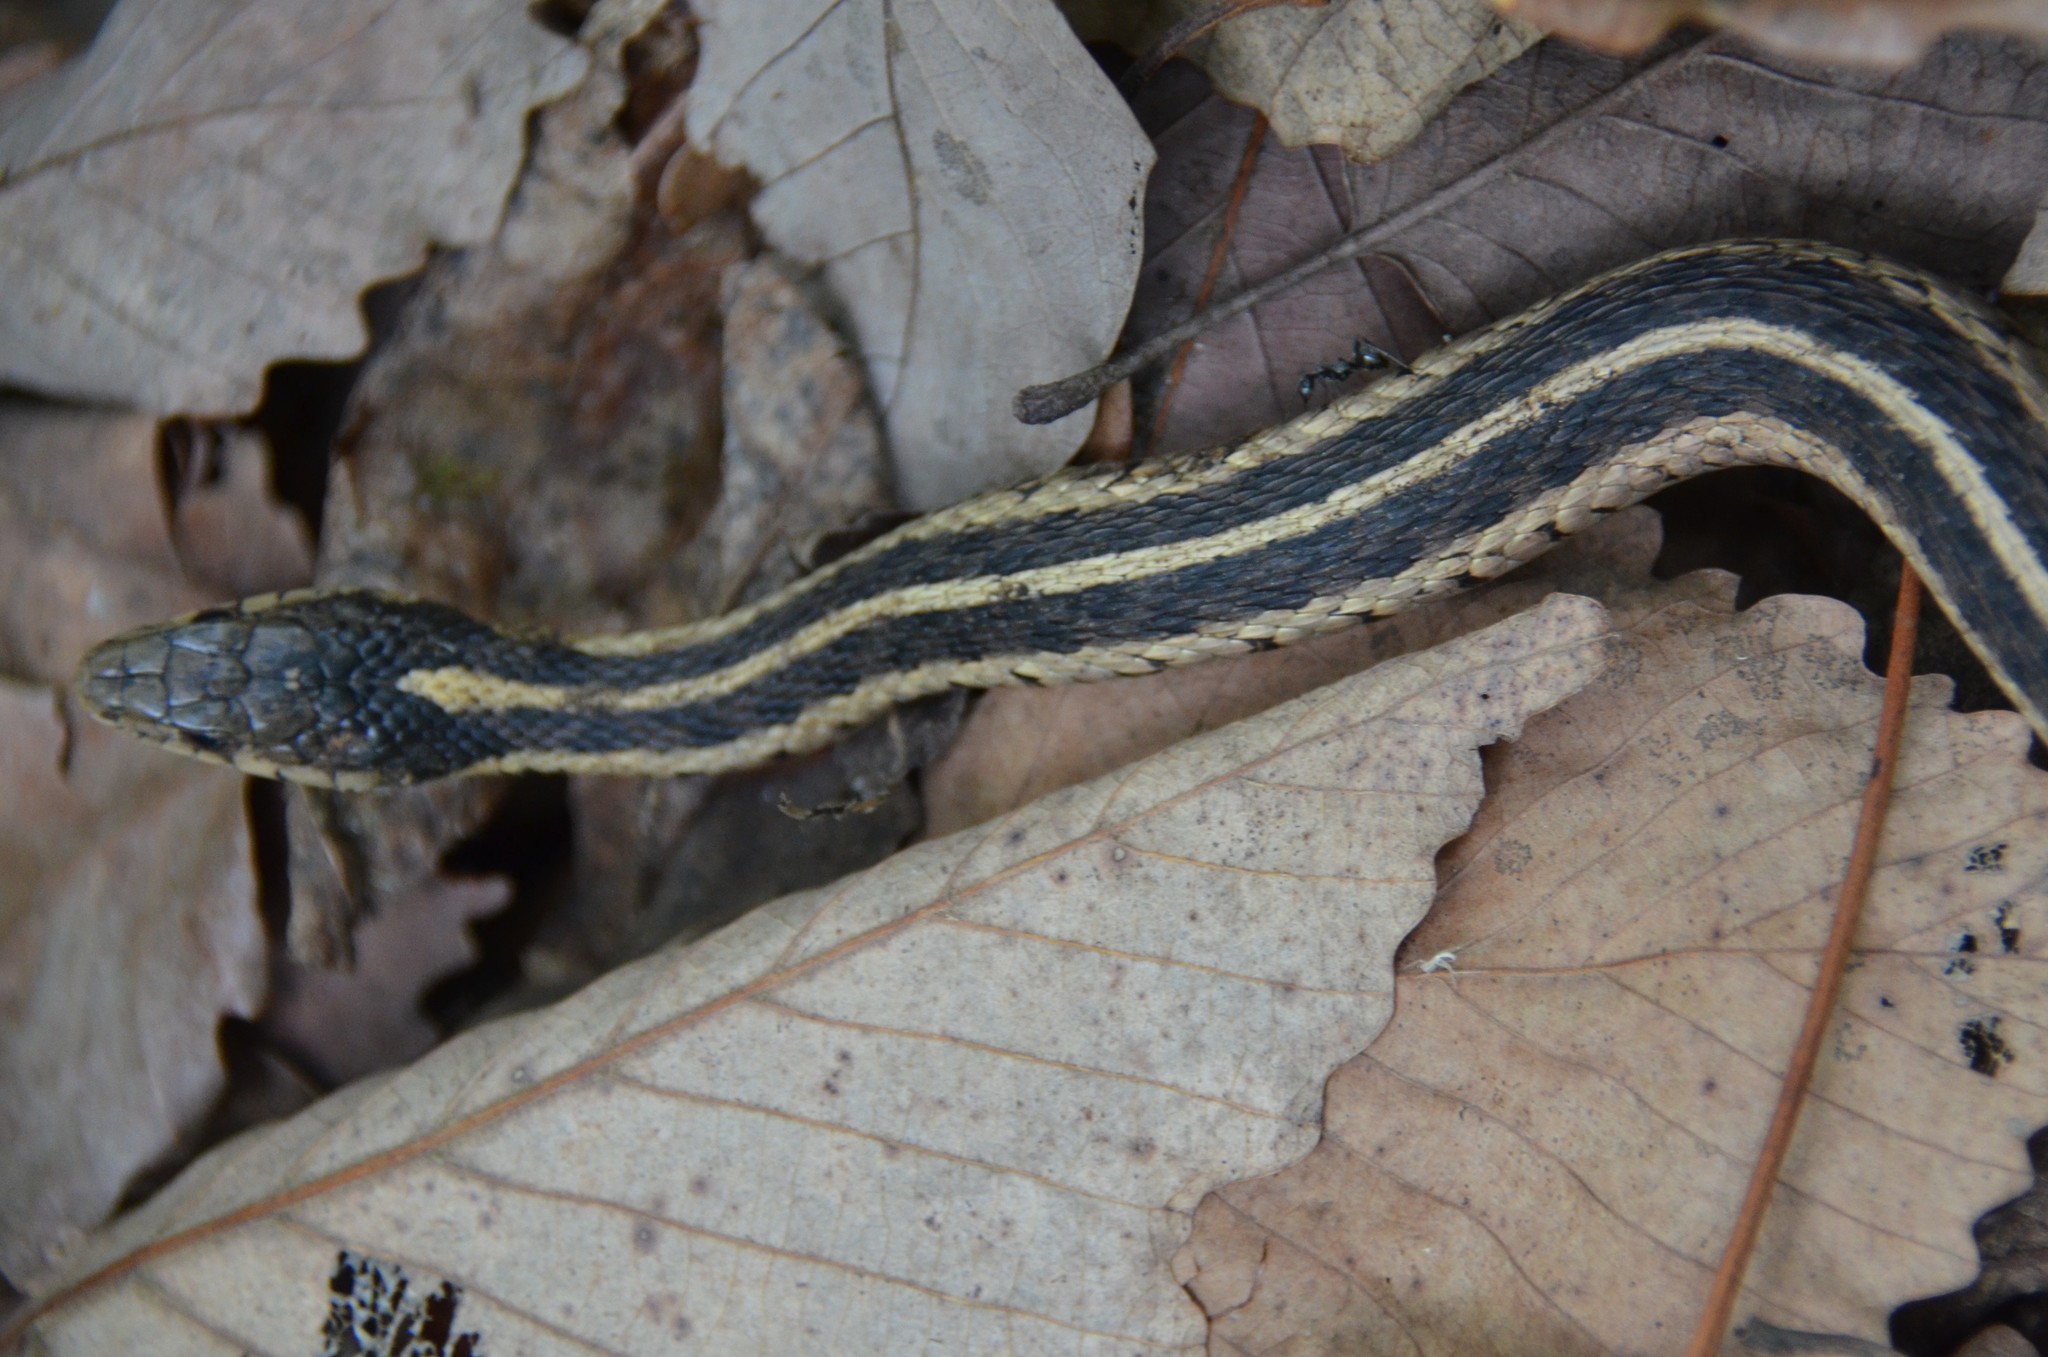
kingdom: Animalia
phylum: Chordata
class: Squamata
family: Colubridae
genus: Thamnophis
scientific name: Thamnophis sirtalis
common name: Common garter snake
